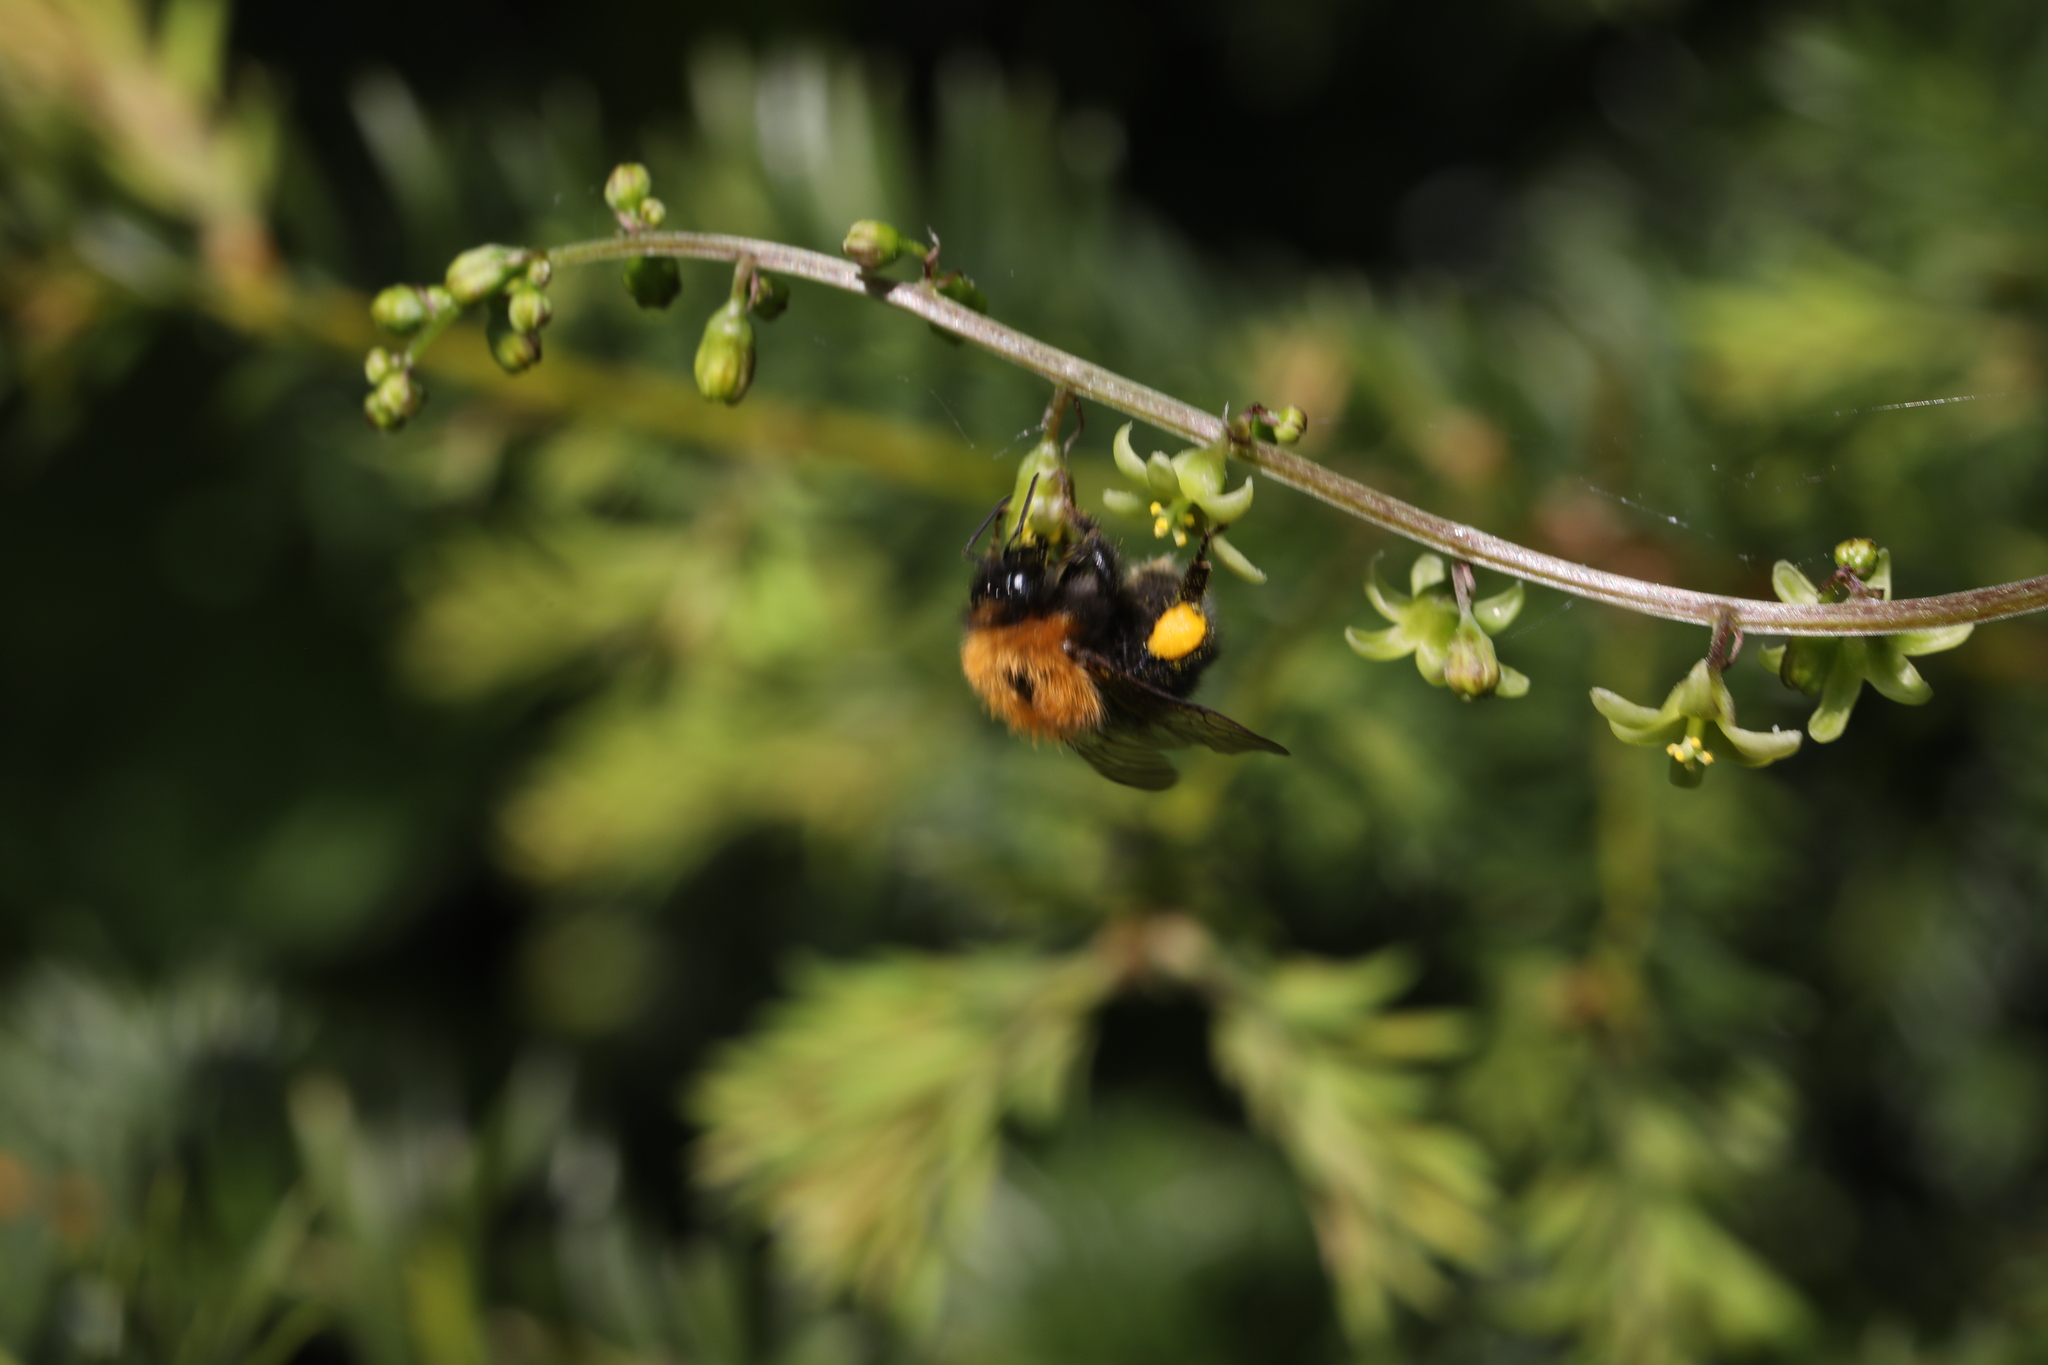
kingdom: Animalia
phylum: Arthropoda
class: Insecta
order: Hymenoptera
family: Apidae
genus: Bombus
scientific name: Bombus hypnorum
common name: New garden bumblebee
